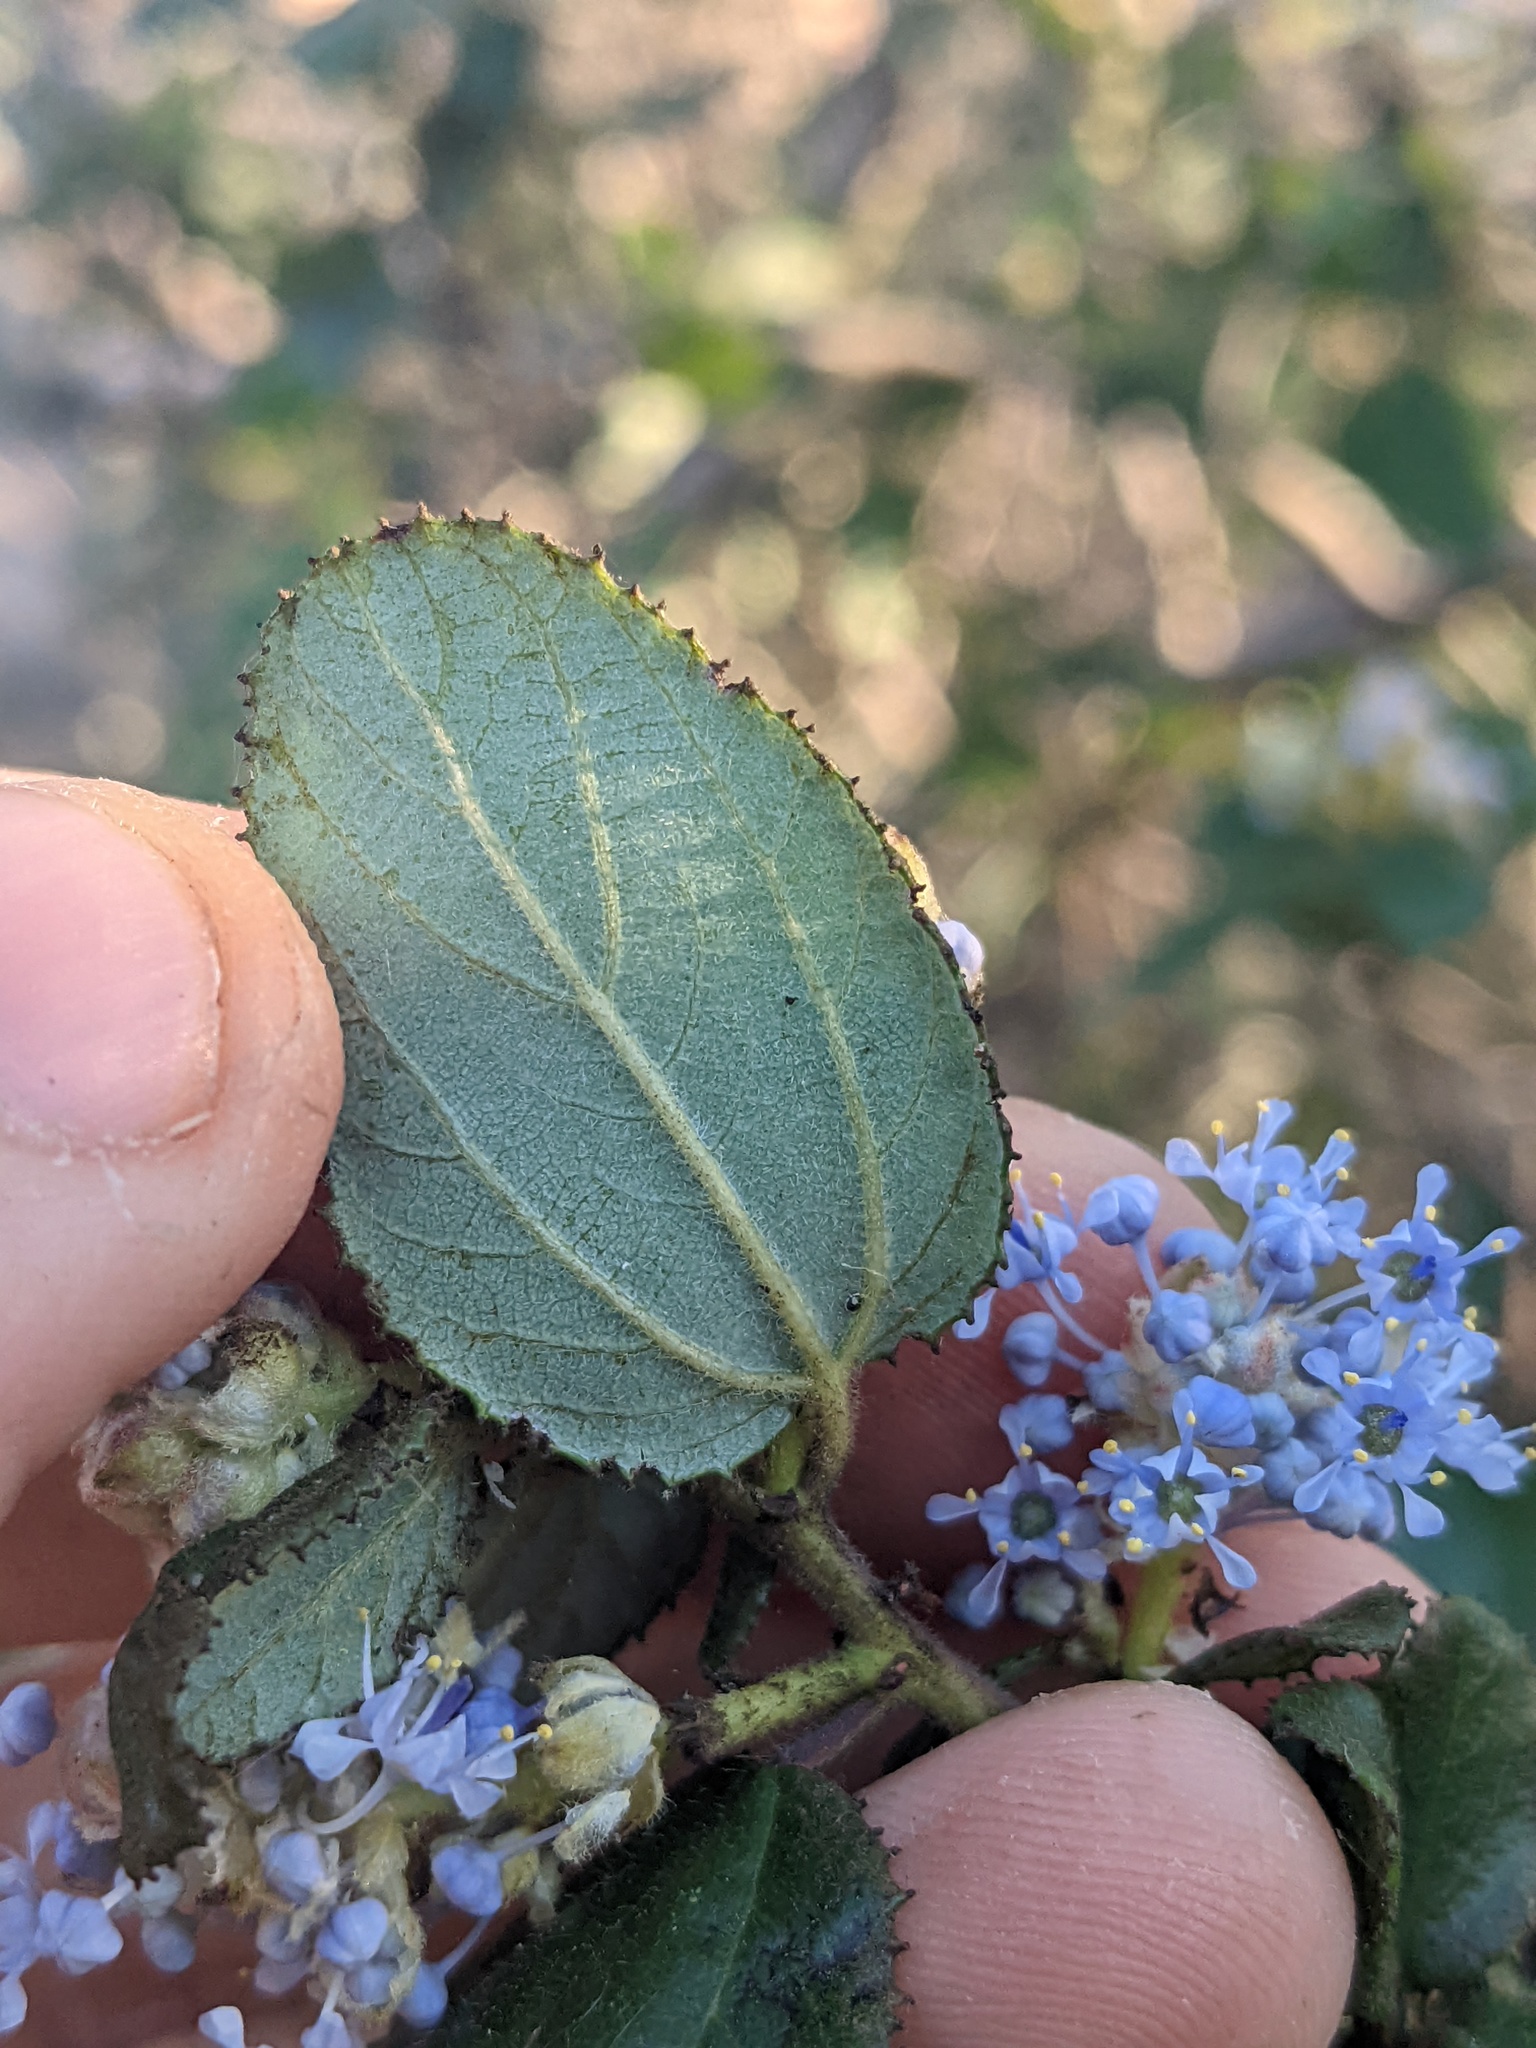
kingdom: Plantae
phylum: Tracheophyta
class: Magnoliopsida
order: Rosales
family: Rhamnaceae
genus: Ceanothus
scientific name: Ceanothus oliganthus
